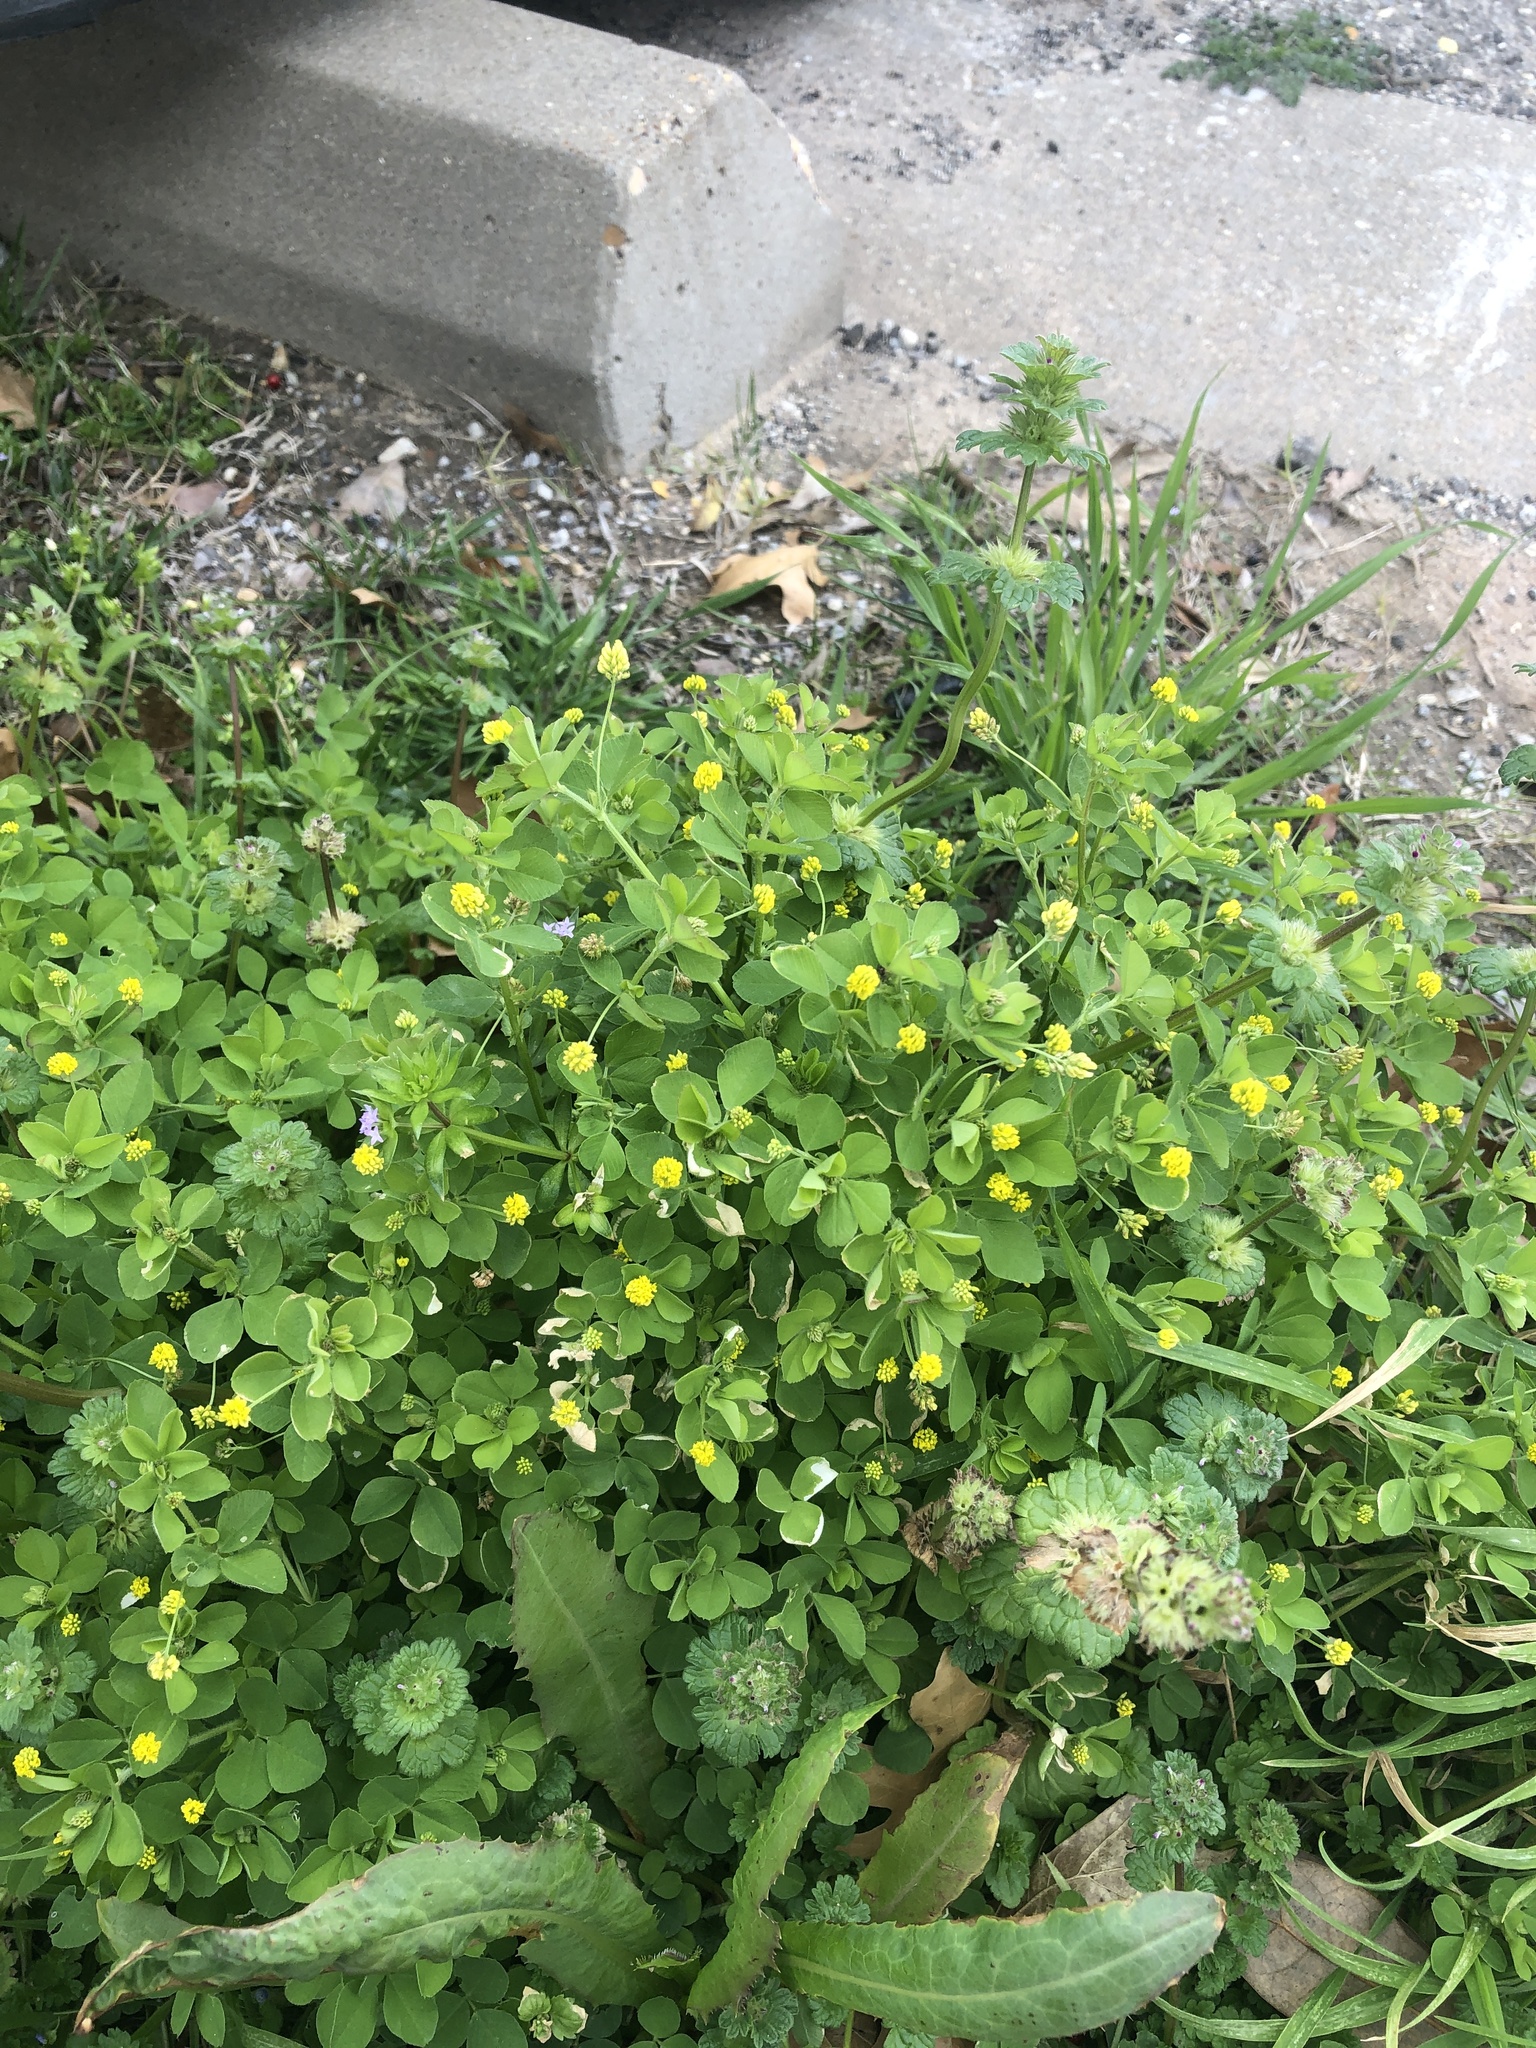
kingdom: Plantae
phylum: Tracheophyta
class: Magnoliopsida
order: Fabales
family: Fabaceae
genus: Medicago
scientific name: Medicago lupulina
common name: Black medick
